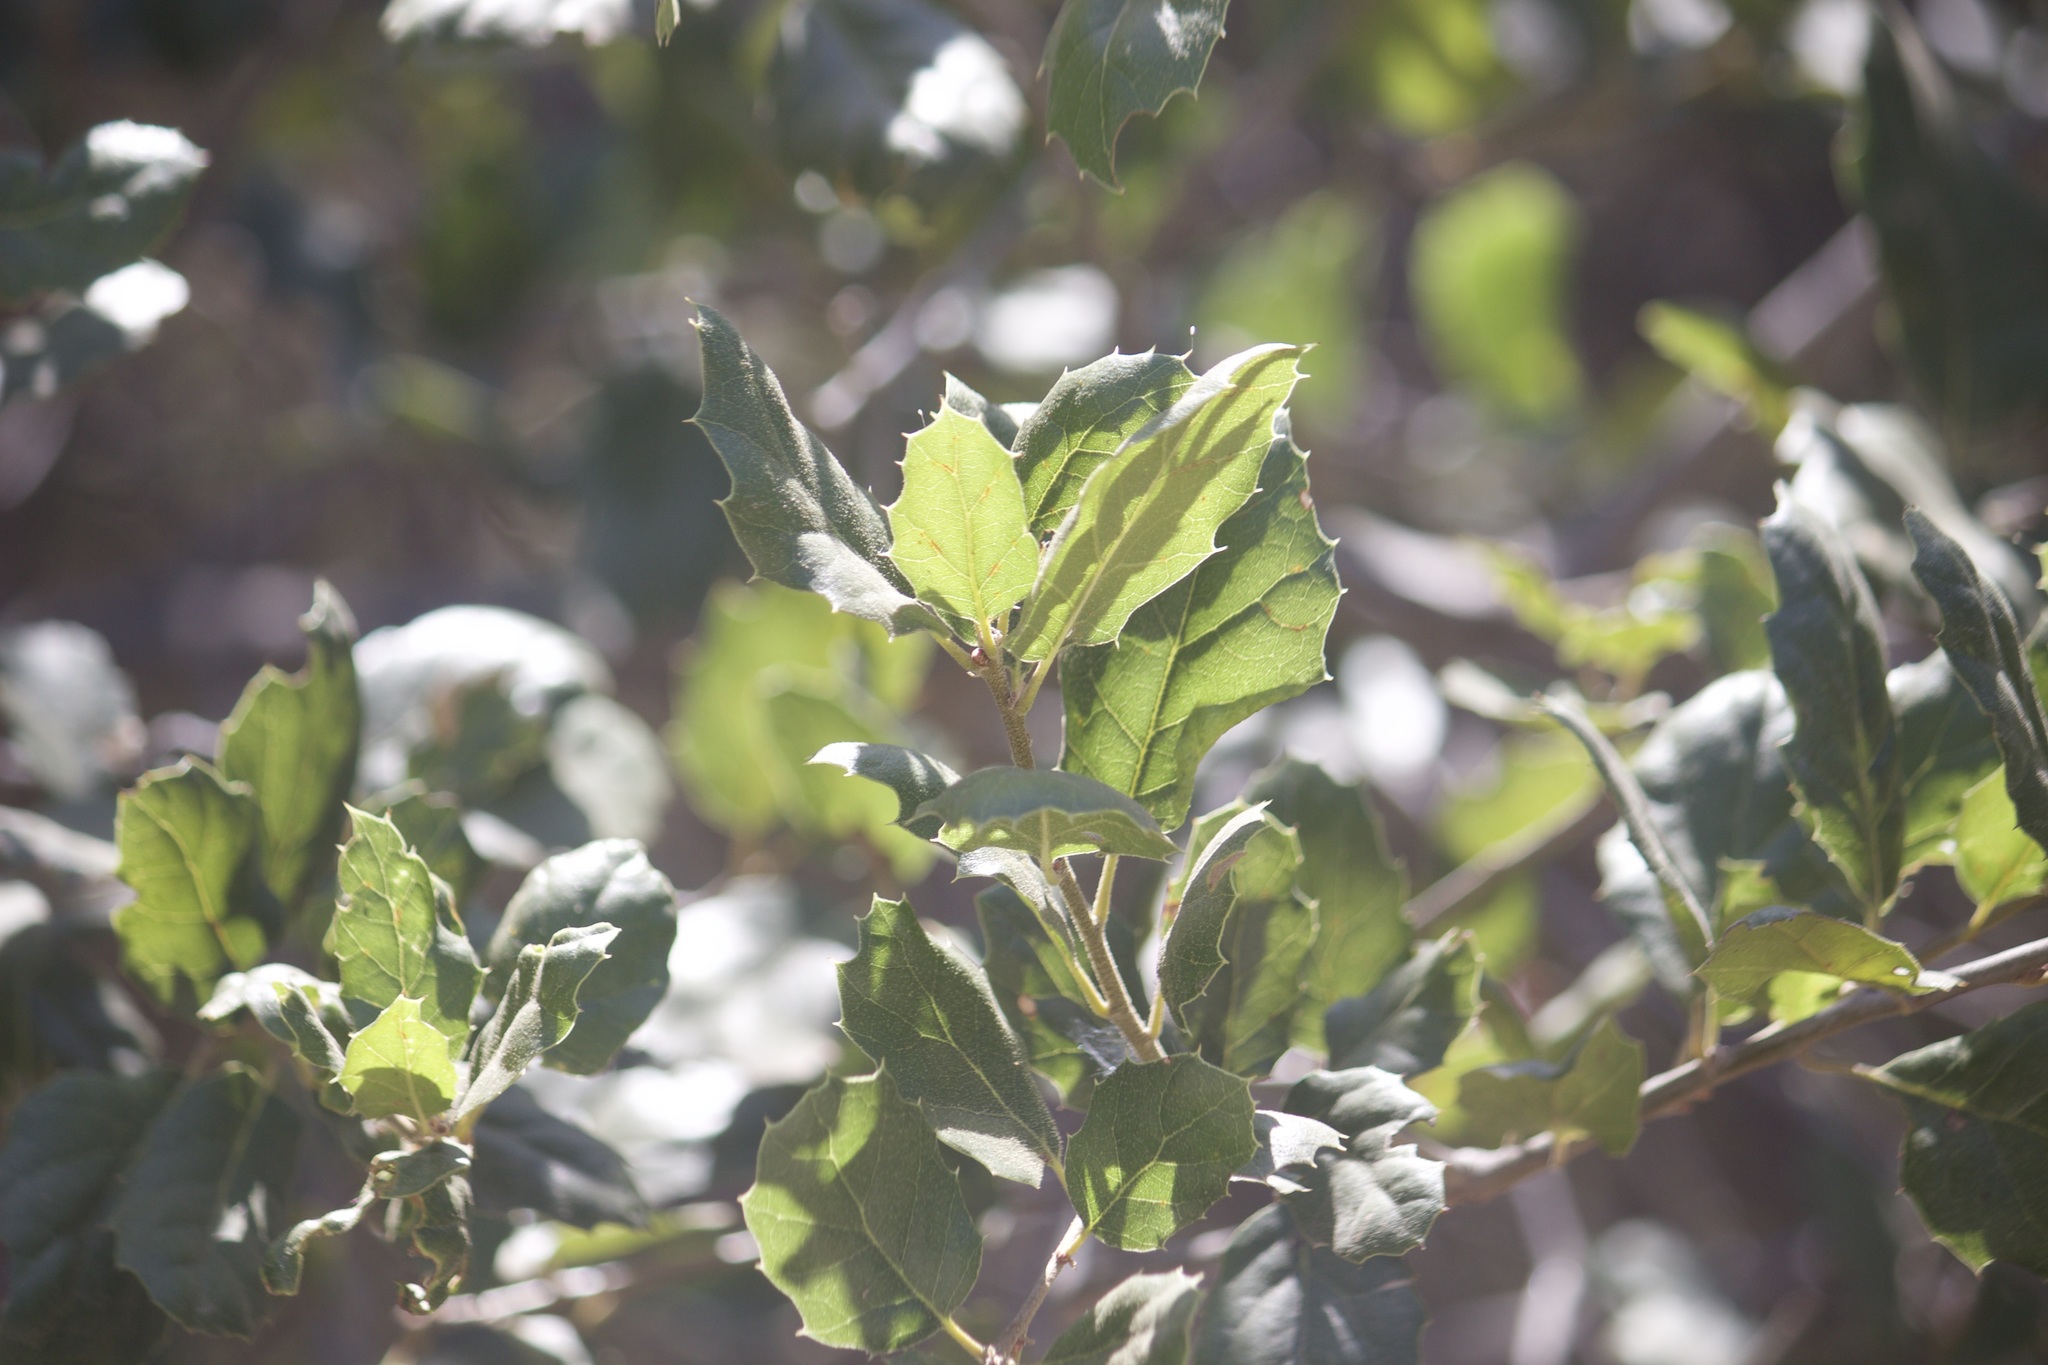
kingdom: Plantae
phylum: Tracheophyta
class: Magnoliopsida
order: Fagales
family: Fagaceae
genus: Quercus
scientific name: Quercus agrifolia
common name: California live oak
